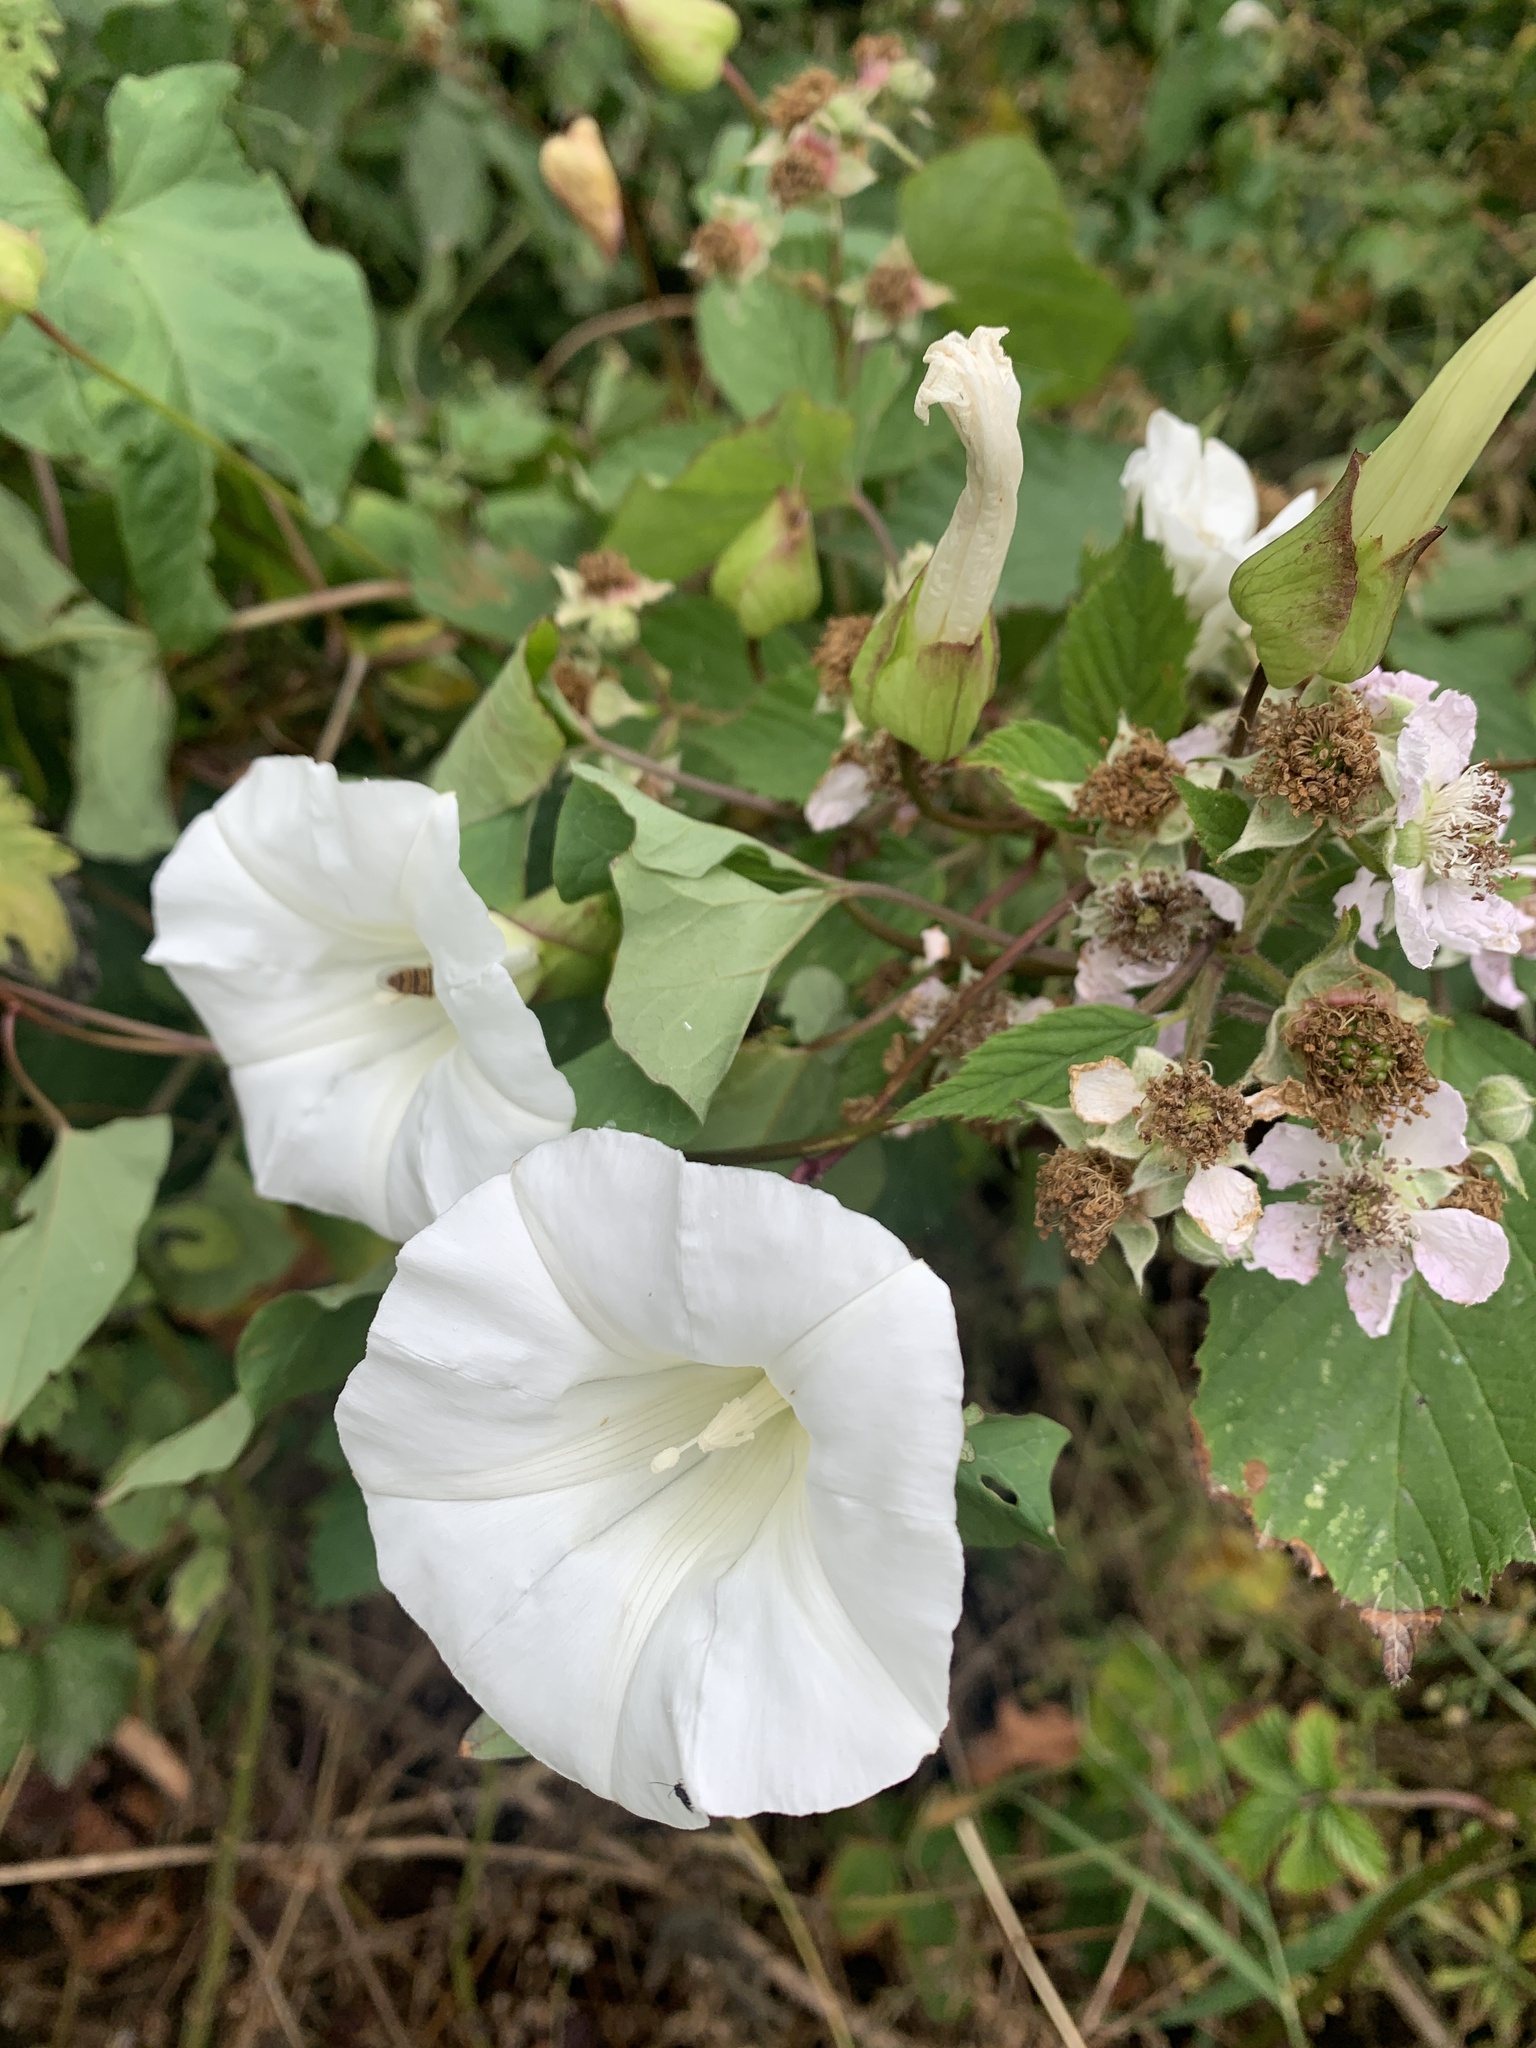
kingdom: Plantae
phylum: Tracheophyta
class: Magnoliopsida
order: Solanales
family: Convolvulaceae
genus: Calystegia
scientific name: Calystegia silvatica
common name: Large bindweed
